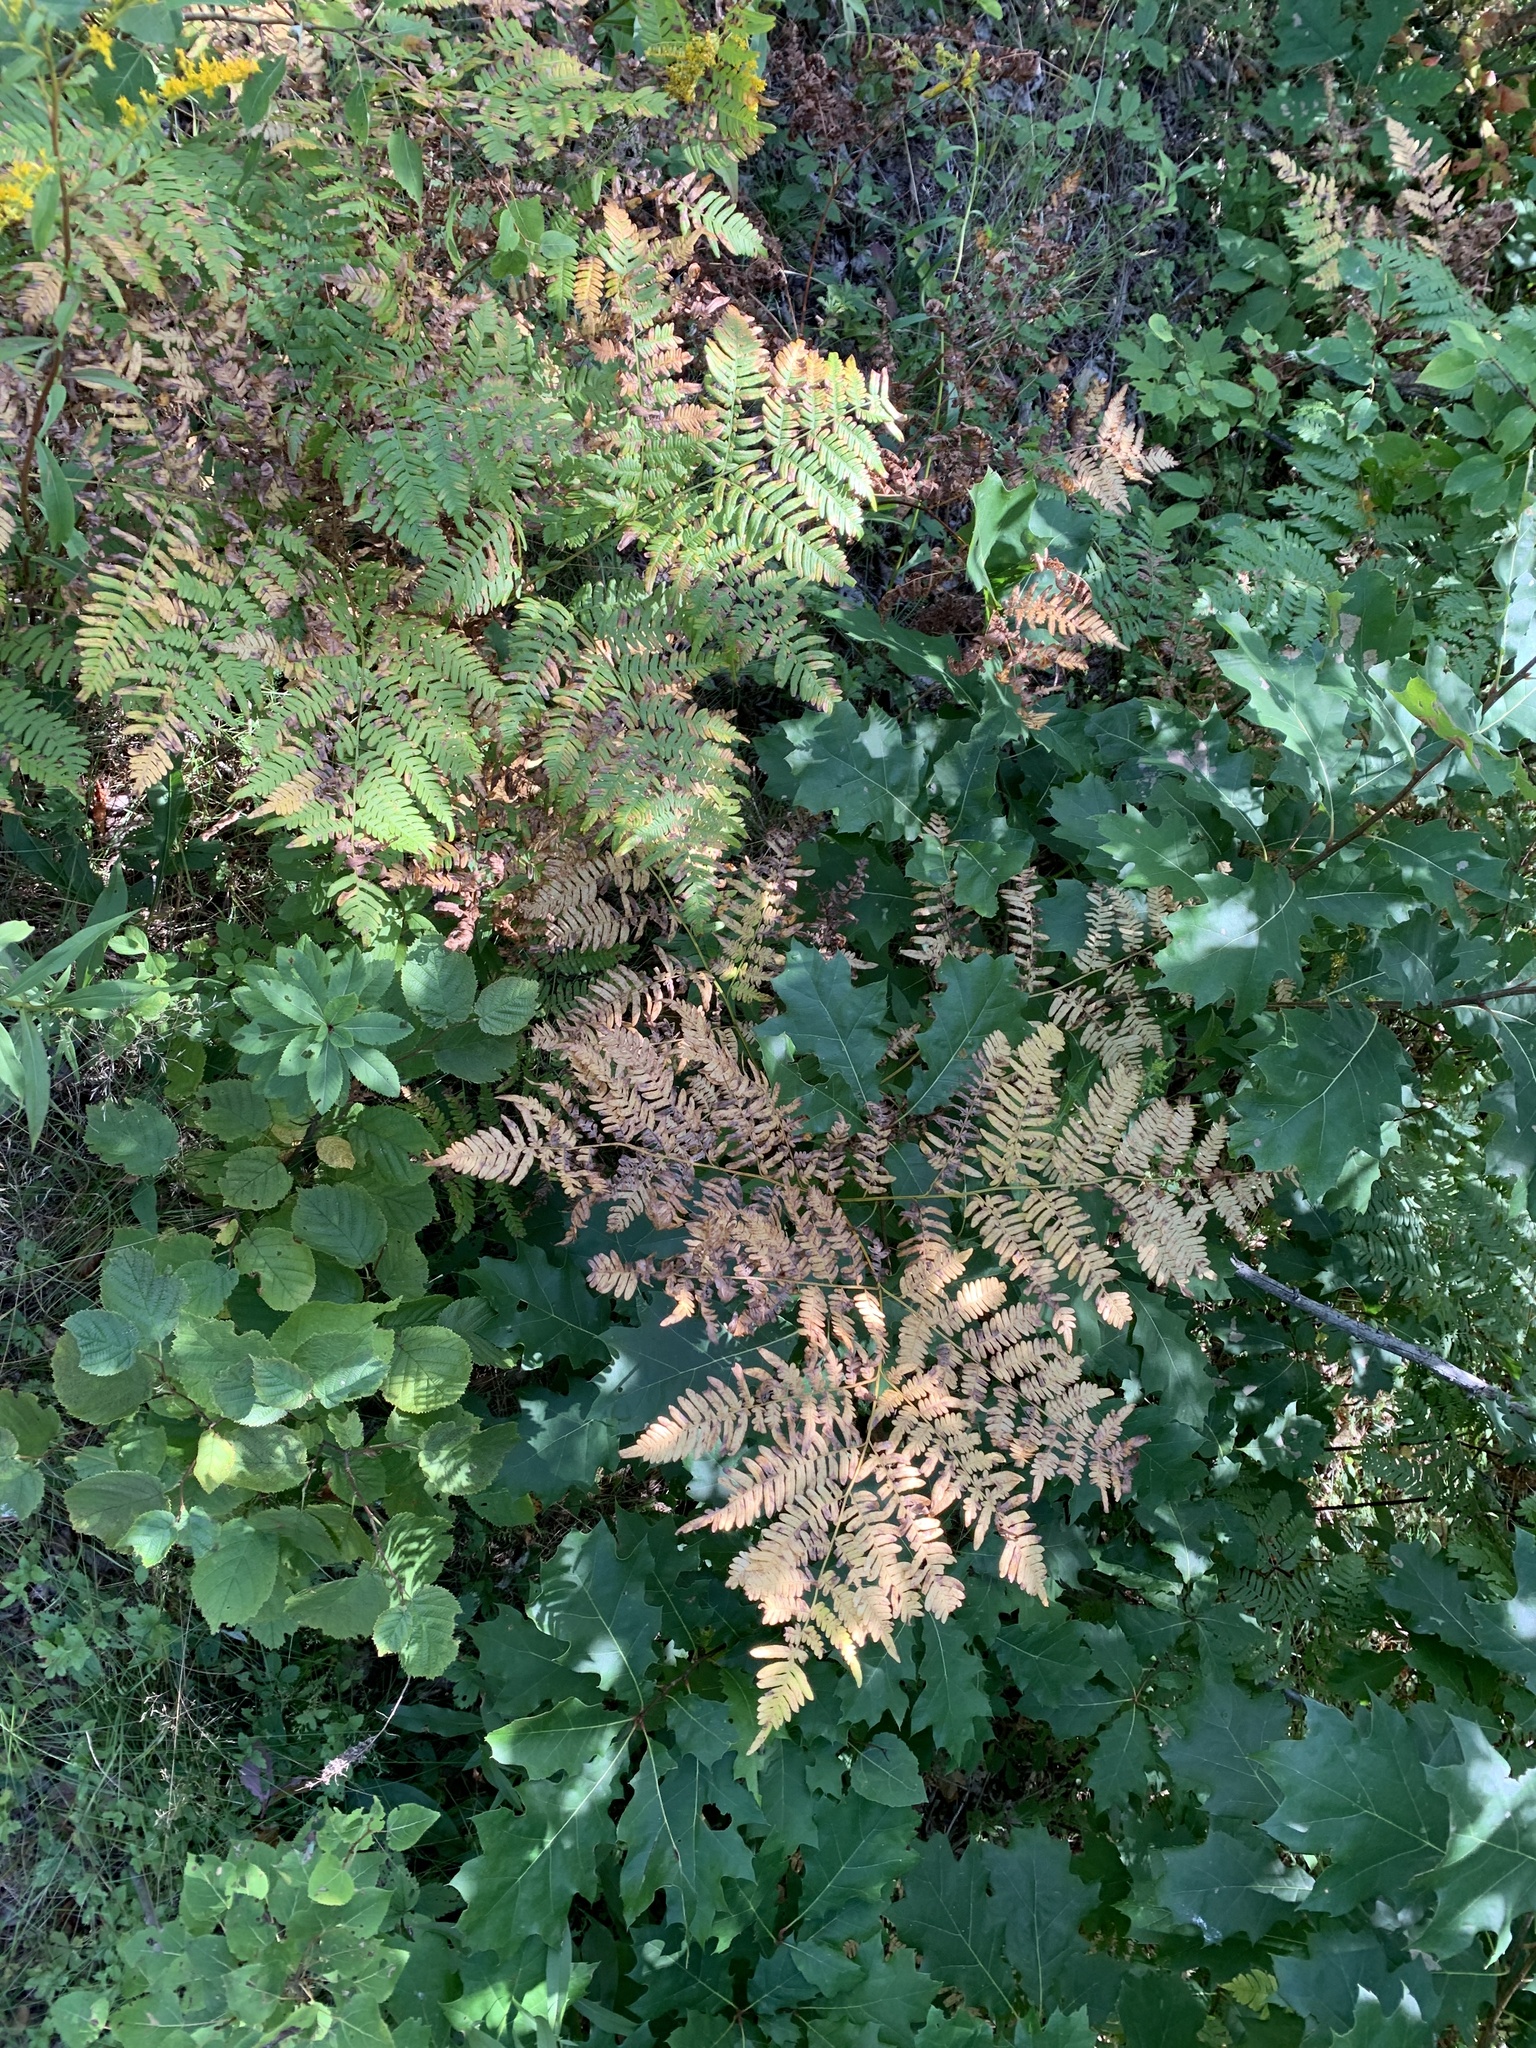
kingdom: Plantae
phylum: Tracheophyta
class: Polypodiopsida
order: Polypodiales
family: Dennstaedtiaceae
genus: Pteridium
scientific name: Pteridium aquilinum
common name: Bracken
